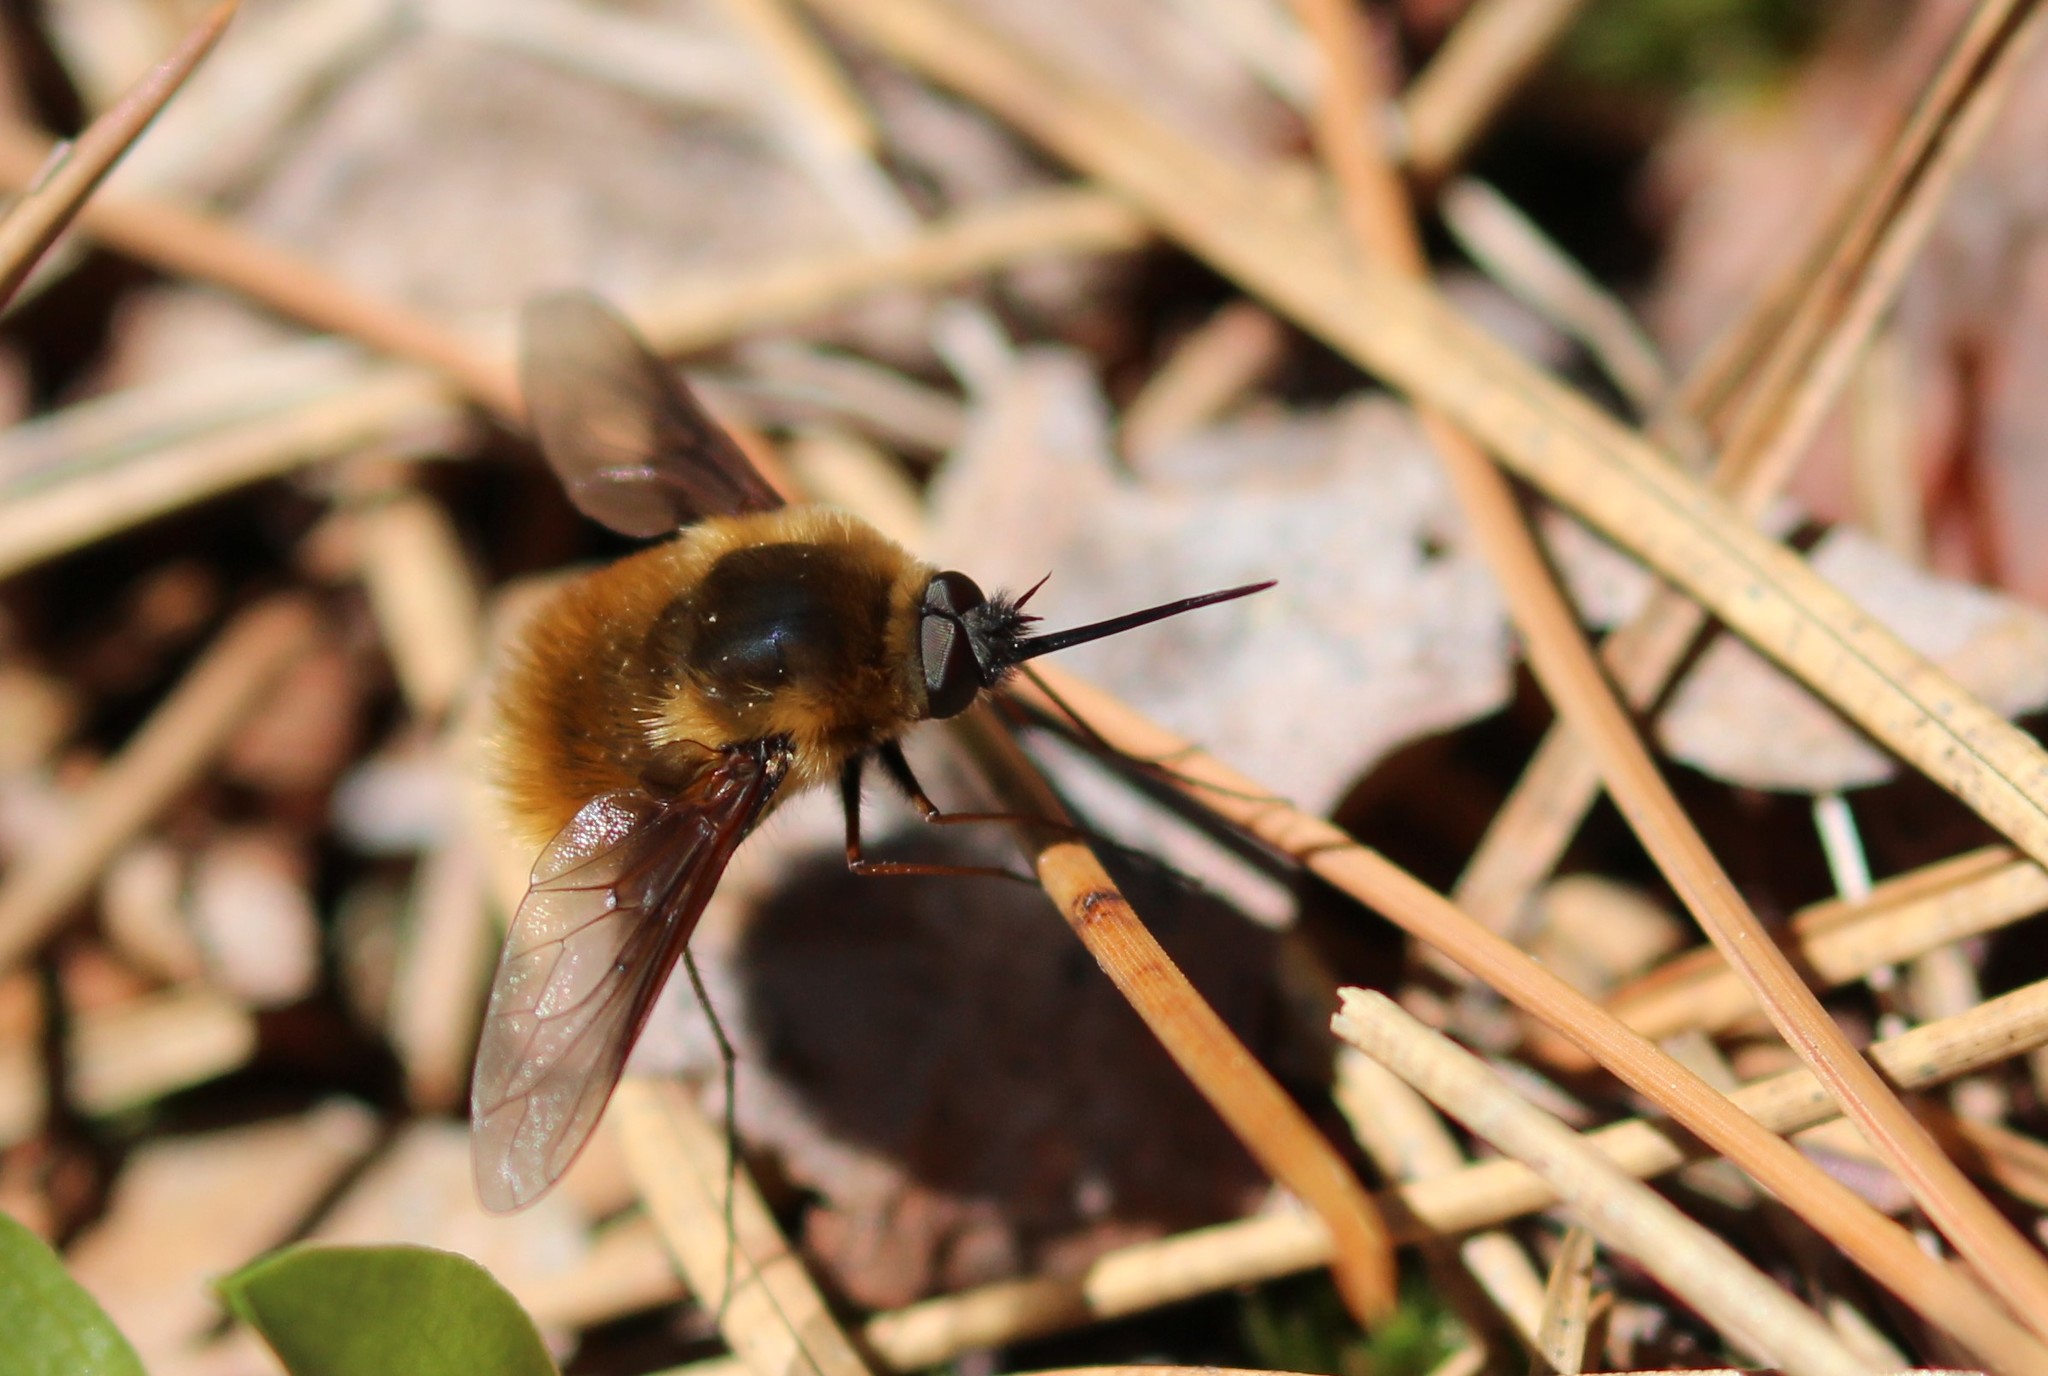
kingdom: Animalia
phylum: Arthropoda
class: Insecta
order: Diptera
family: Bombyliidae
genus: Bombylius
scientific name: Bombylius mexicanus
